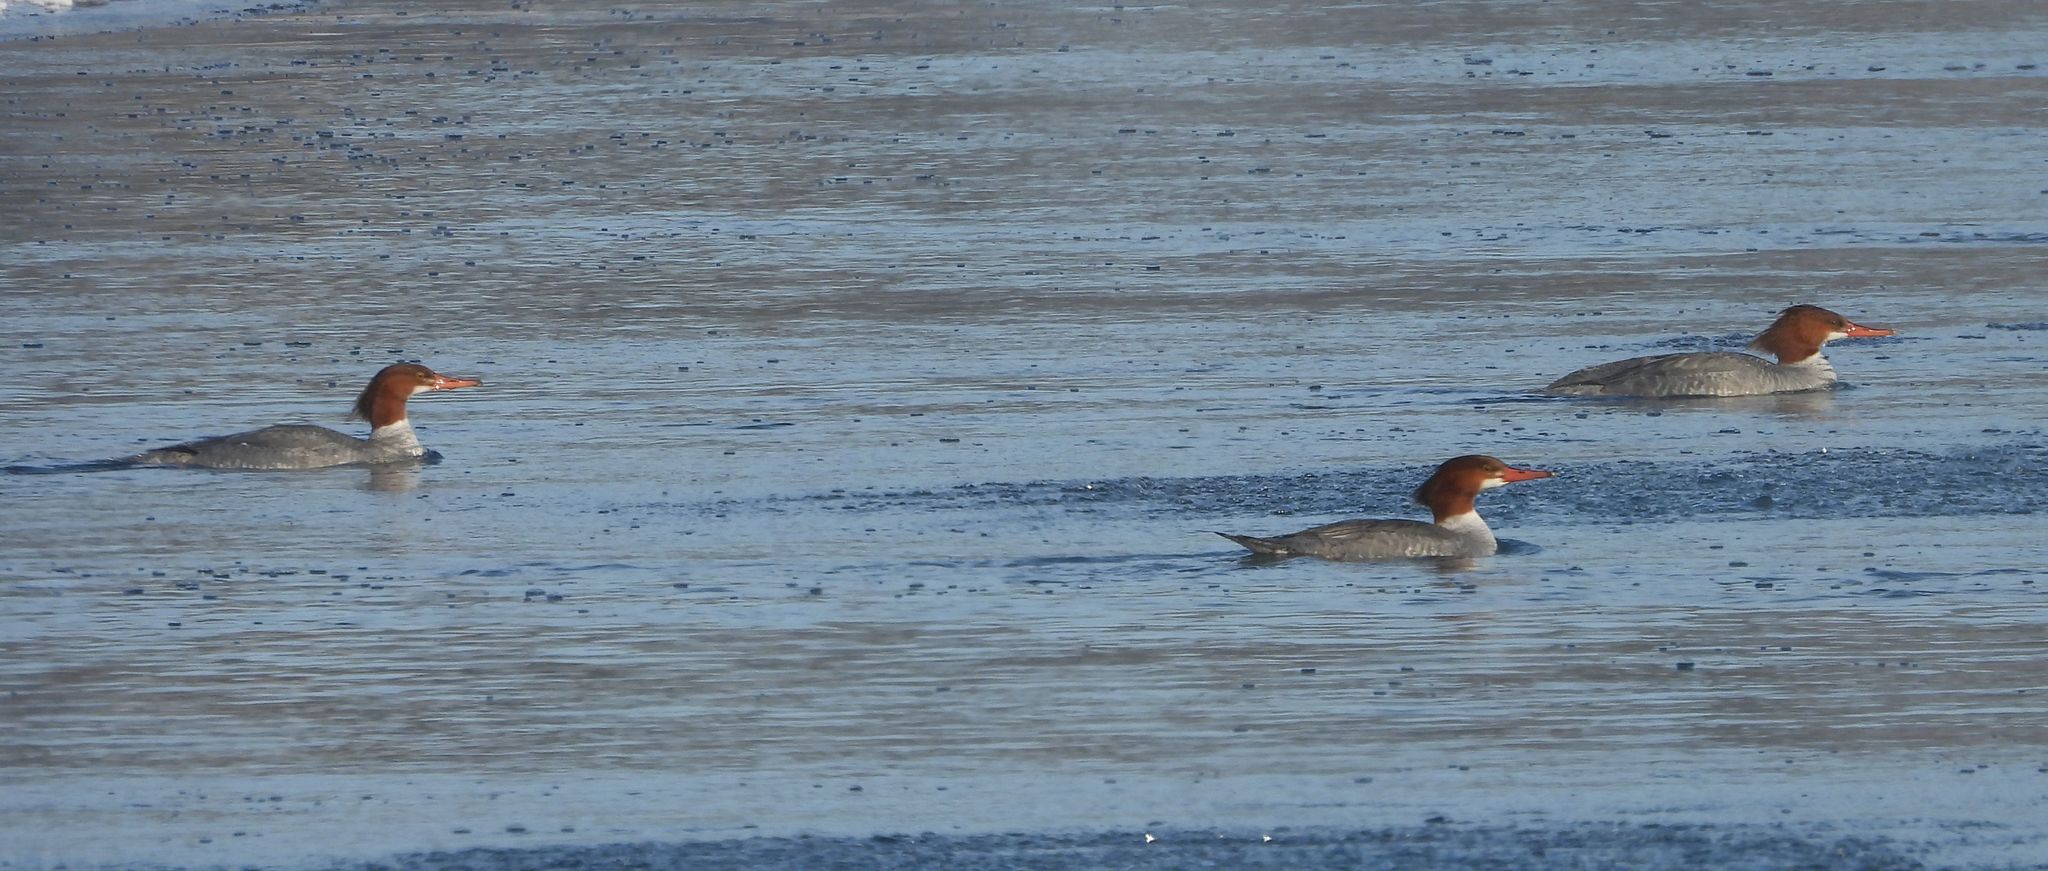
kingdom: Animalia
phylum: Chordata
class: Aves
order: Anseriformes
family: Anatidae
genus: Mergus
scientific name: Mergus merganser
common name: Common merganser
